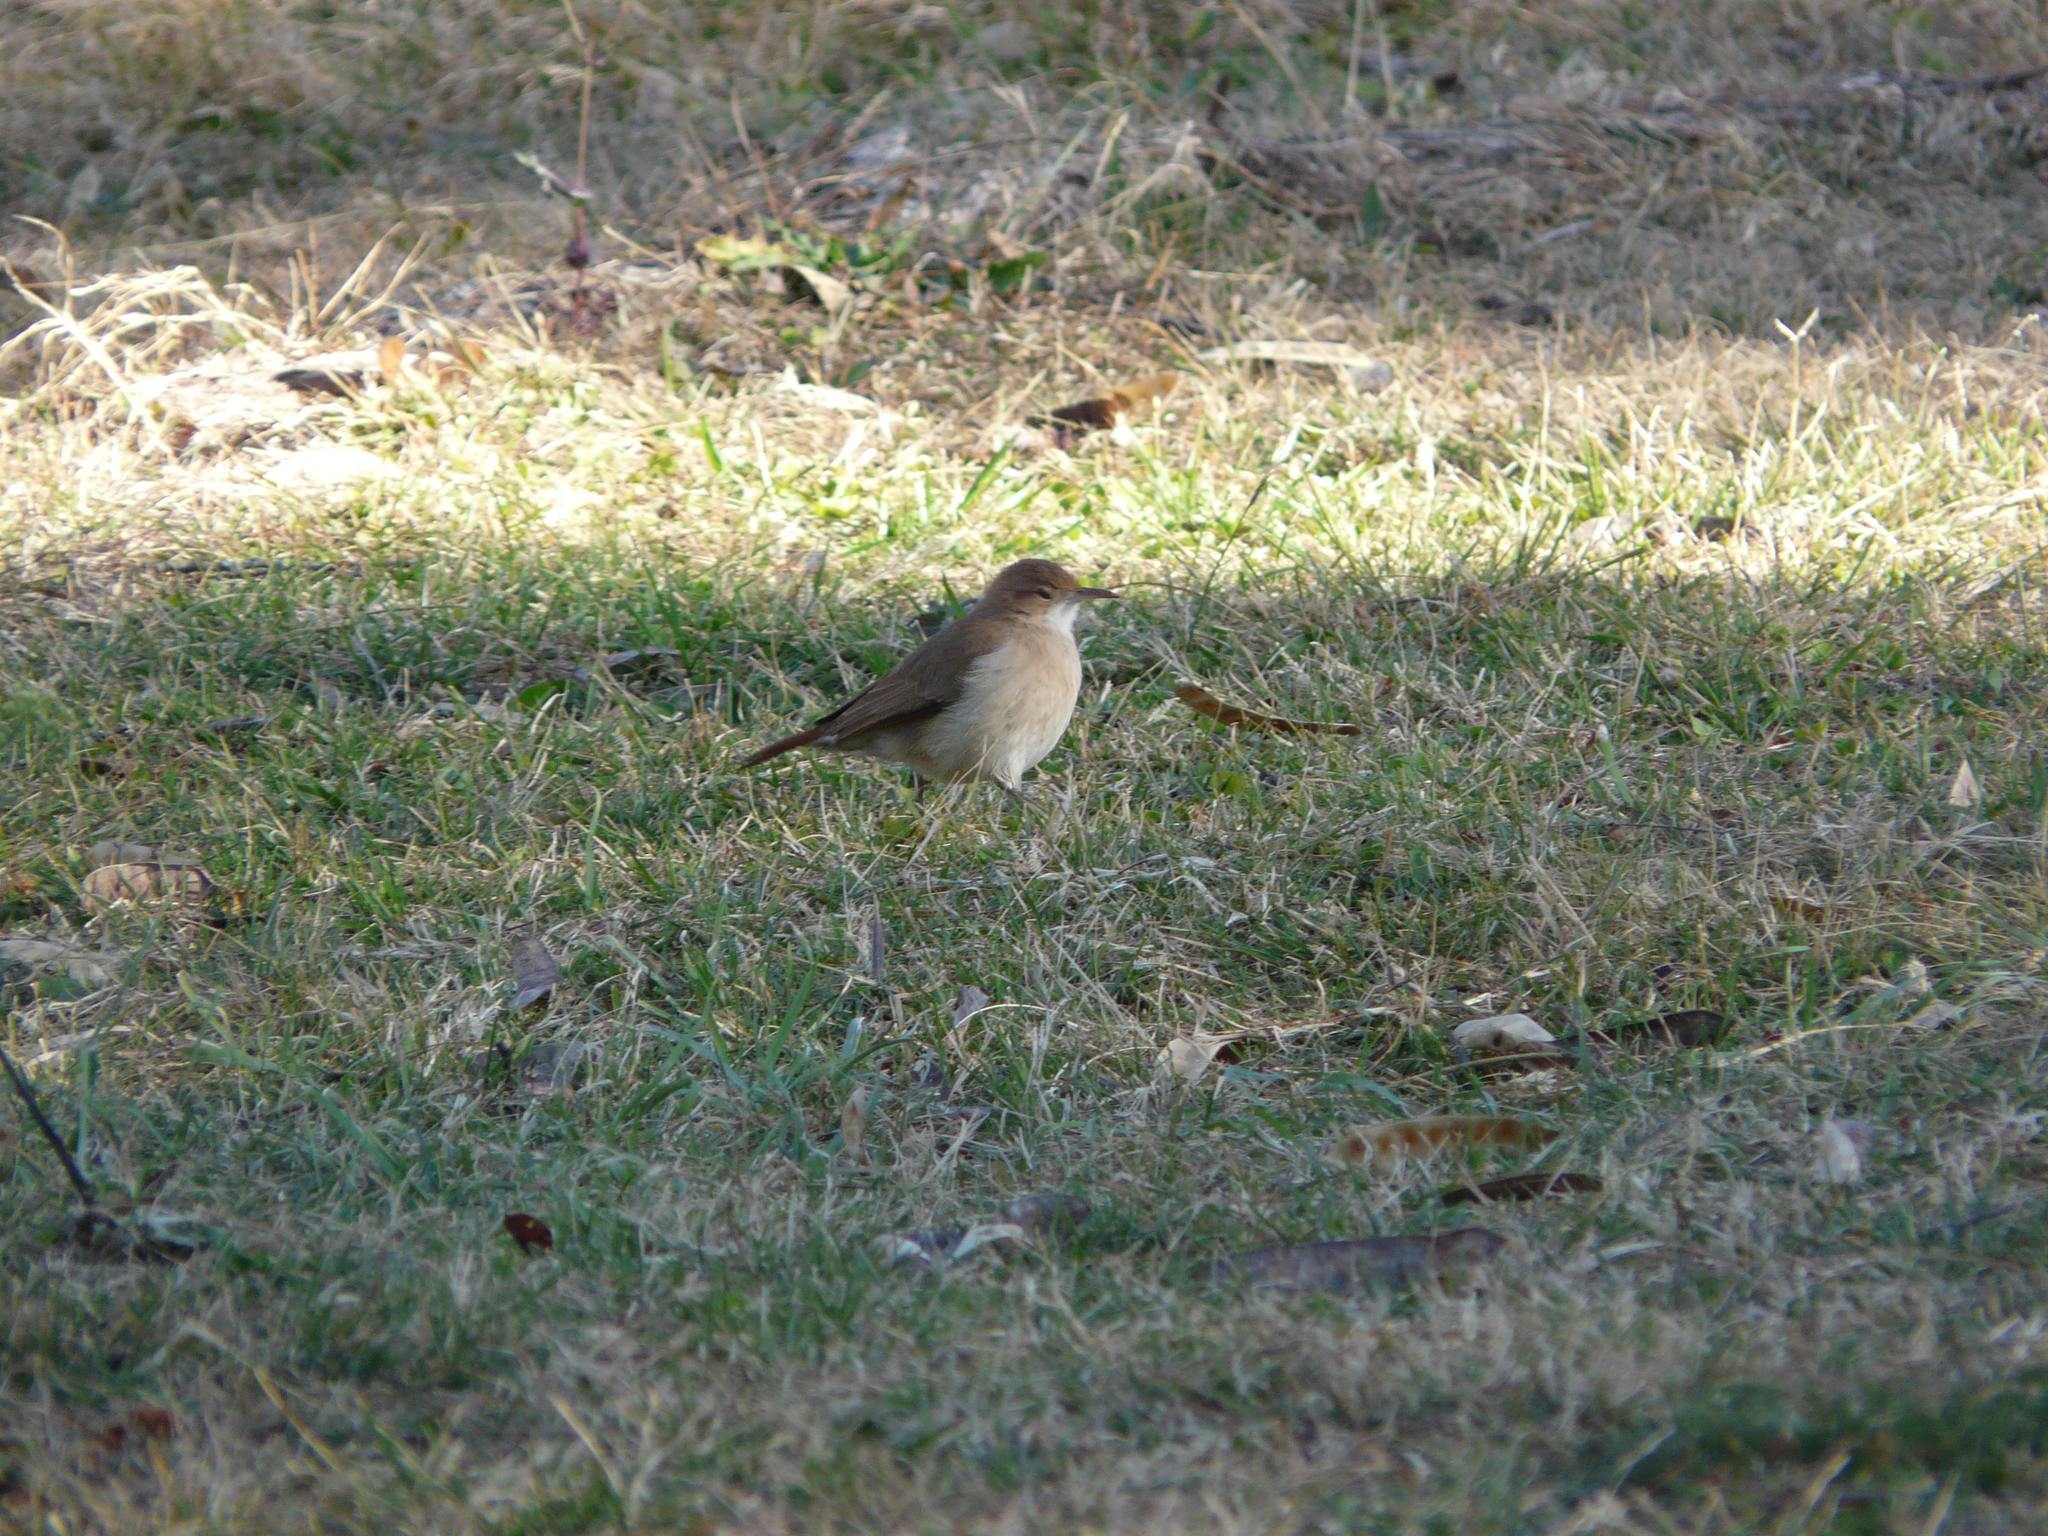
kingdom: Animalia
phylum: Chordata
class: Aves
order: Passeriformes
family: Furnariidae
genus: Furnarius
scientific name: Furnarius rufus
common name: Rufous hornero
